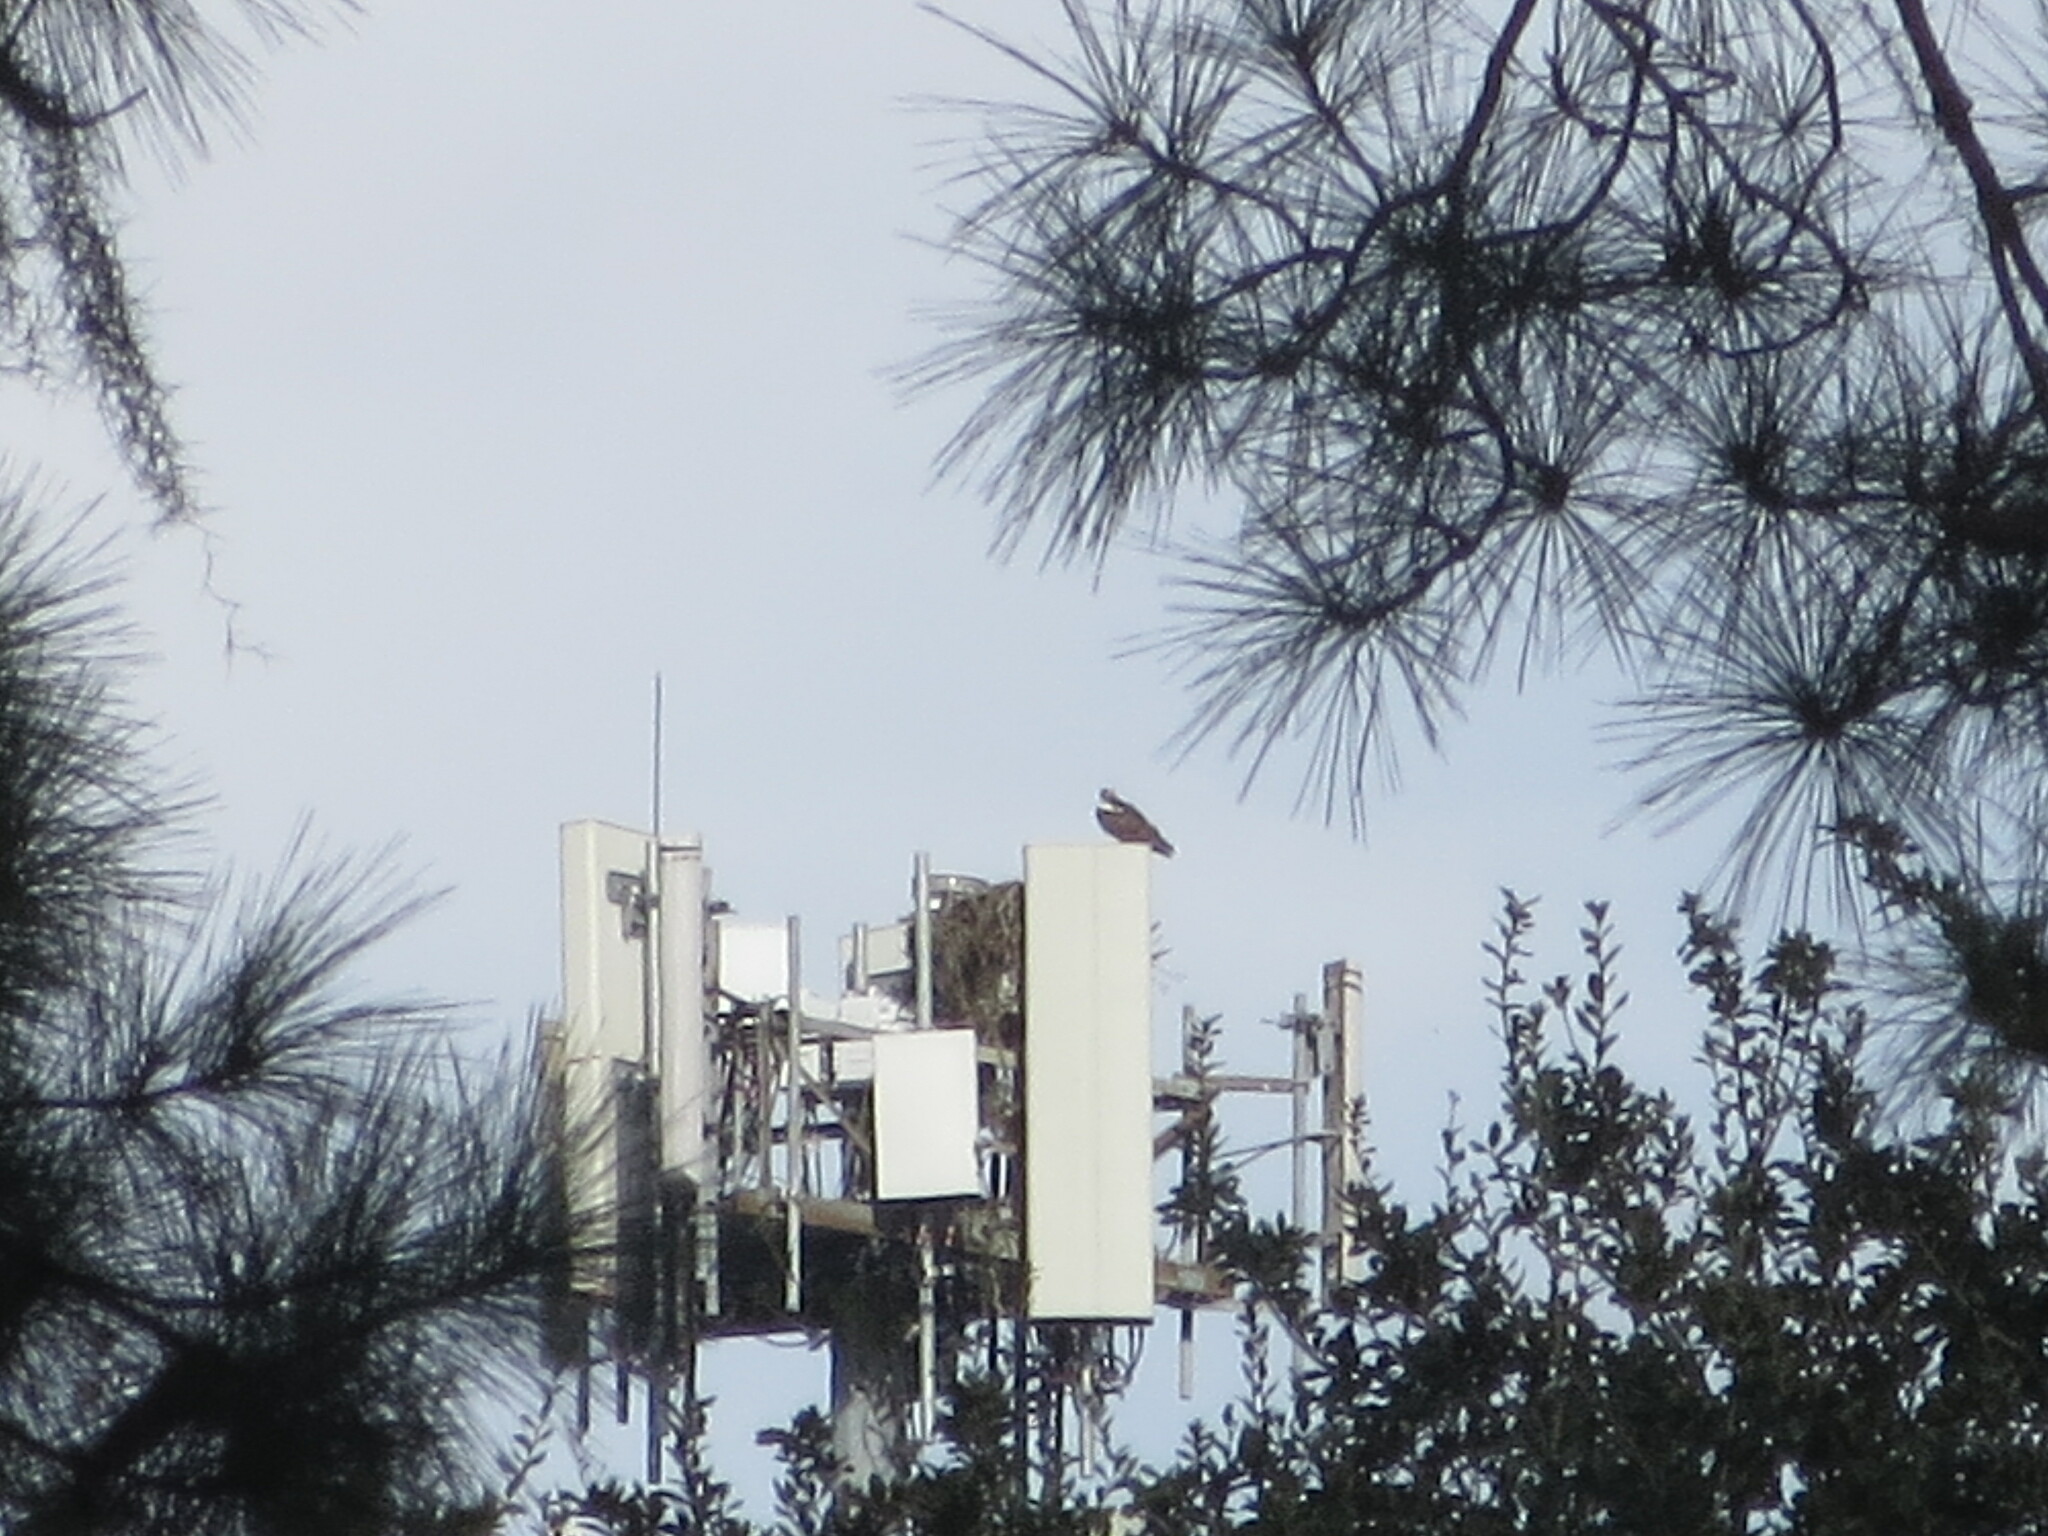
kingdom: Animalia
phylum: Chordata
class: Aves
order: Accipitriformes
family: Pandionidae
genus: Pandion
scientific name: Pandion haliaetus
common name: Osprey
